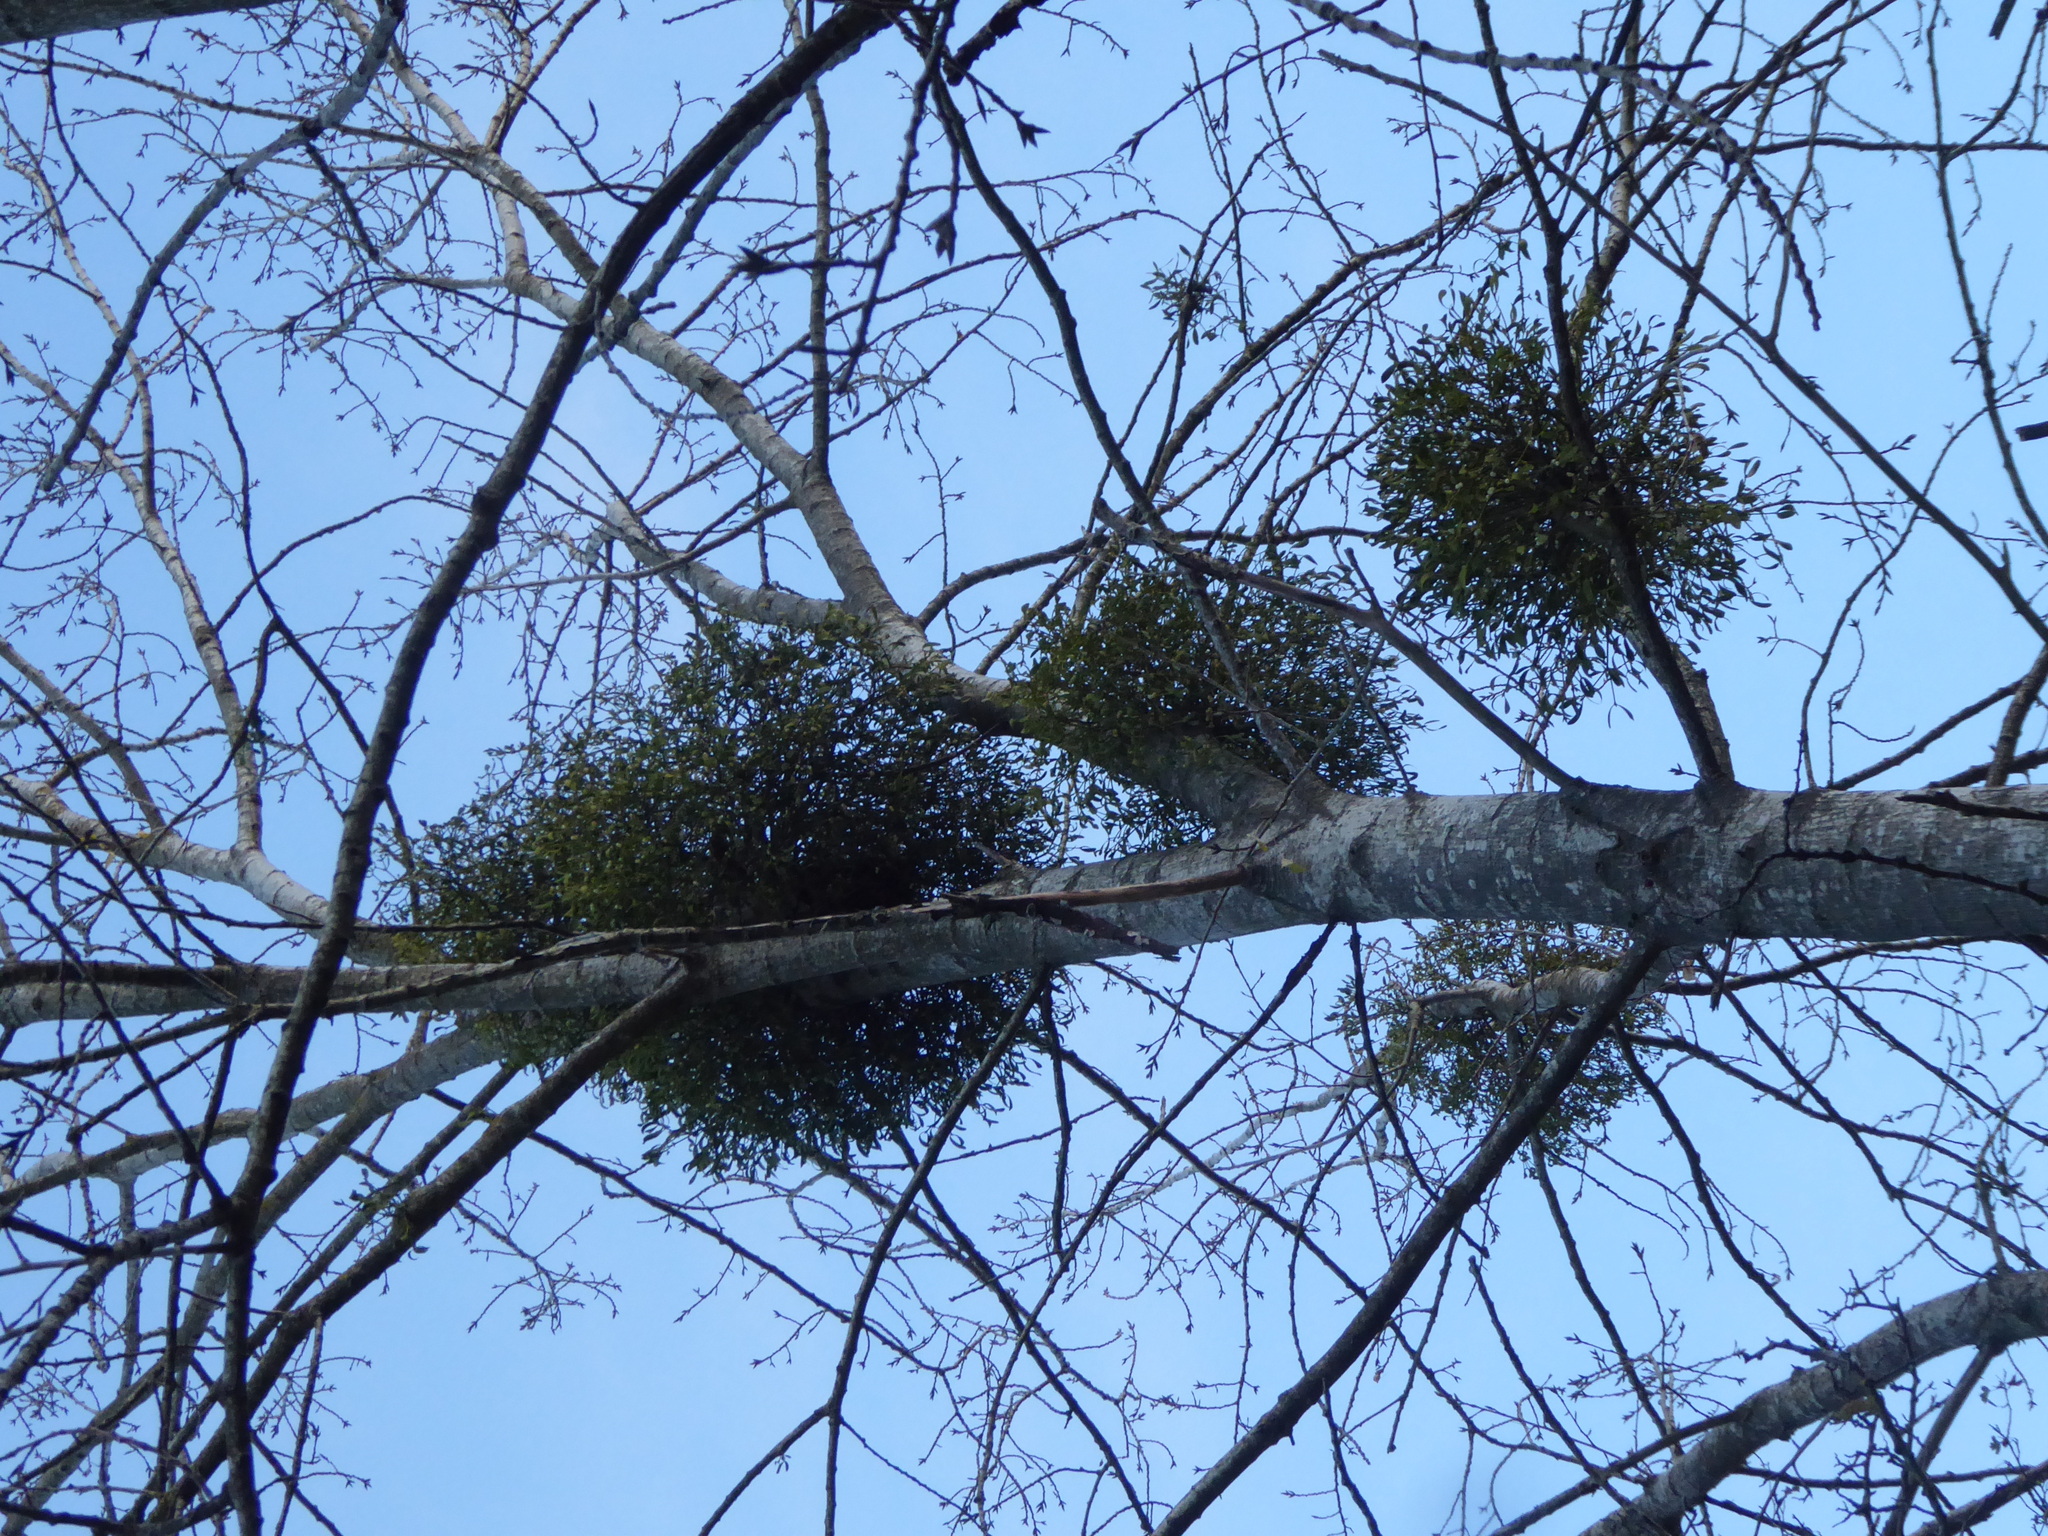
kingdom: Plantae
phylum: Tracheophyta
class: Magnoliopsida
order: Santalales
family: Viscaceae
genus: Viscum
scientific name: Viscum album
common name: Mistletoe
